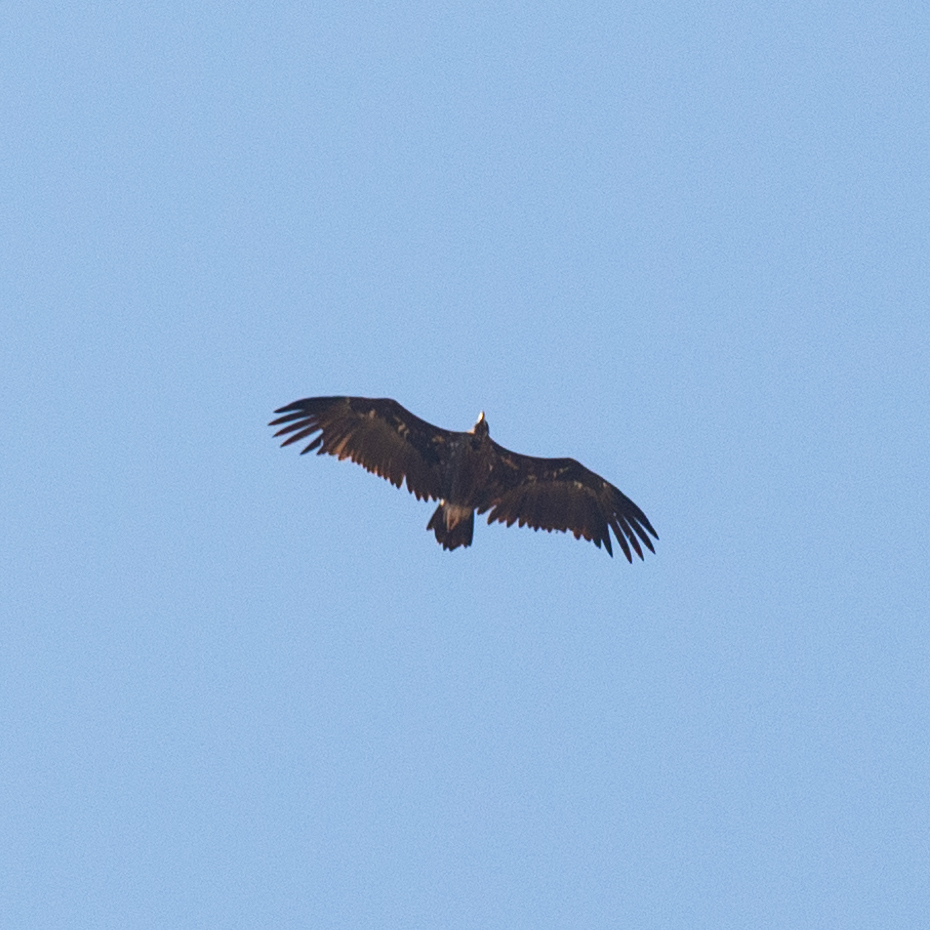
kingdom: Animalia
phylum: Chordata
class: Aves
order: Accipitriformes
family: Accipitridae
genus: Aegypius
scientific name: Aegypius monachus
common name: Cinereous vulture
